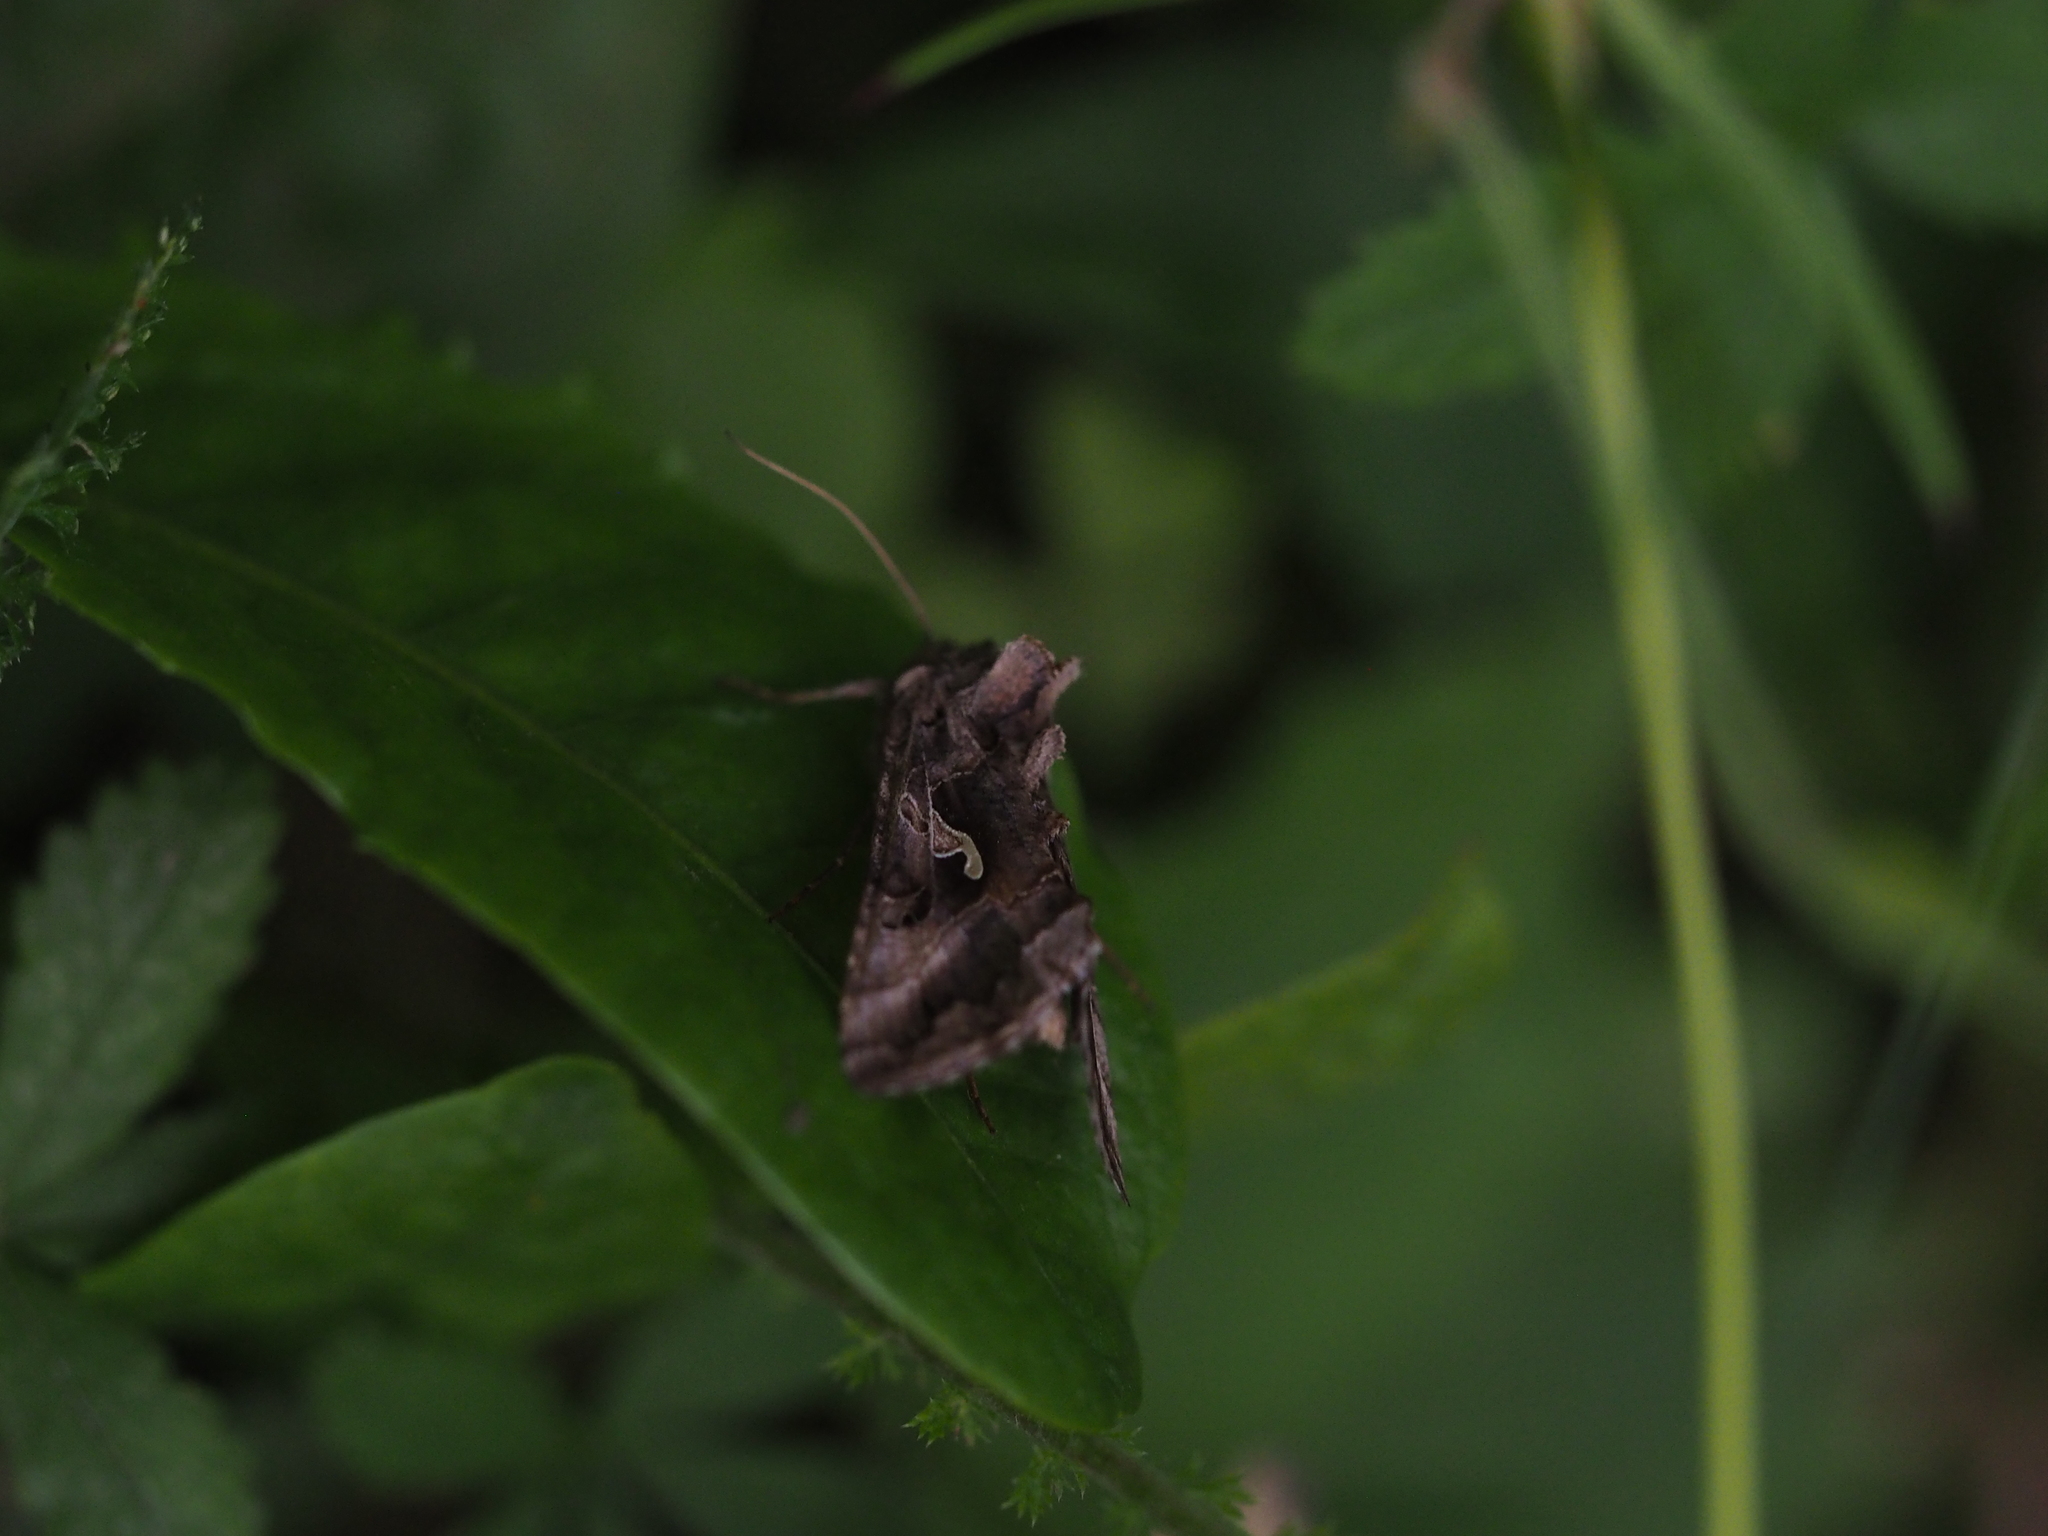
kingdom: Animalia
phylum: Arthropoda
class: Insecta
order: Lepidoptera
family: Noctuidae
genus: Autographa
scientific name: Autographa gamma
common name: Silver y
